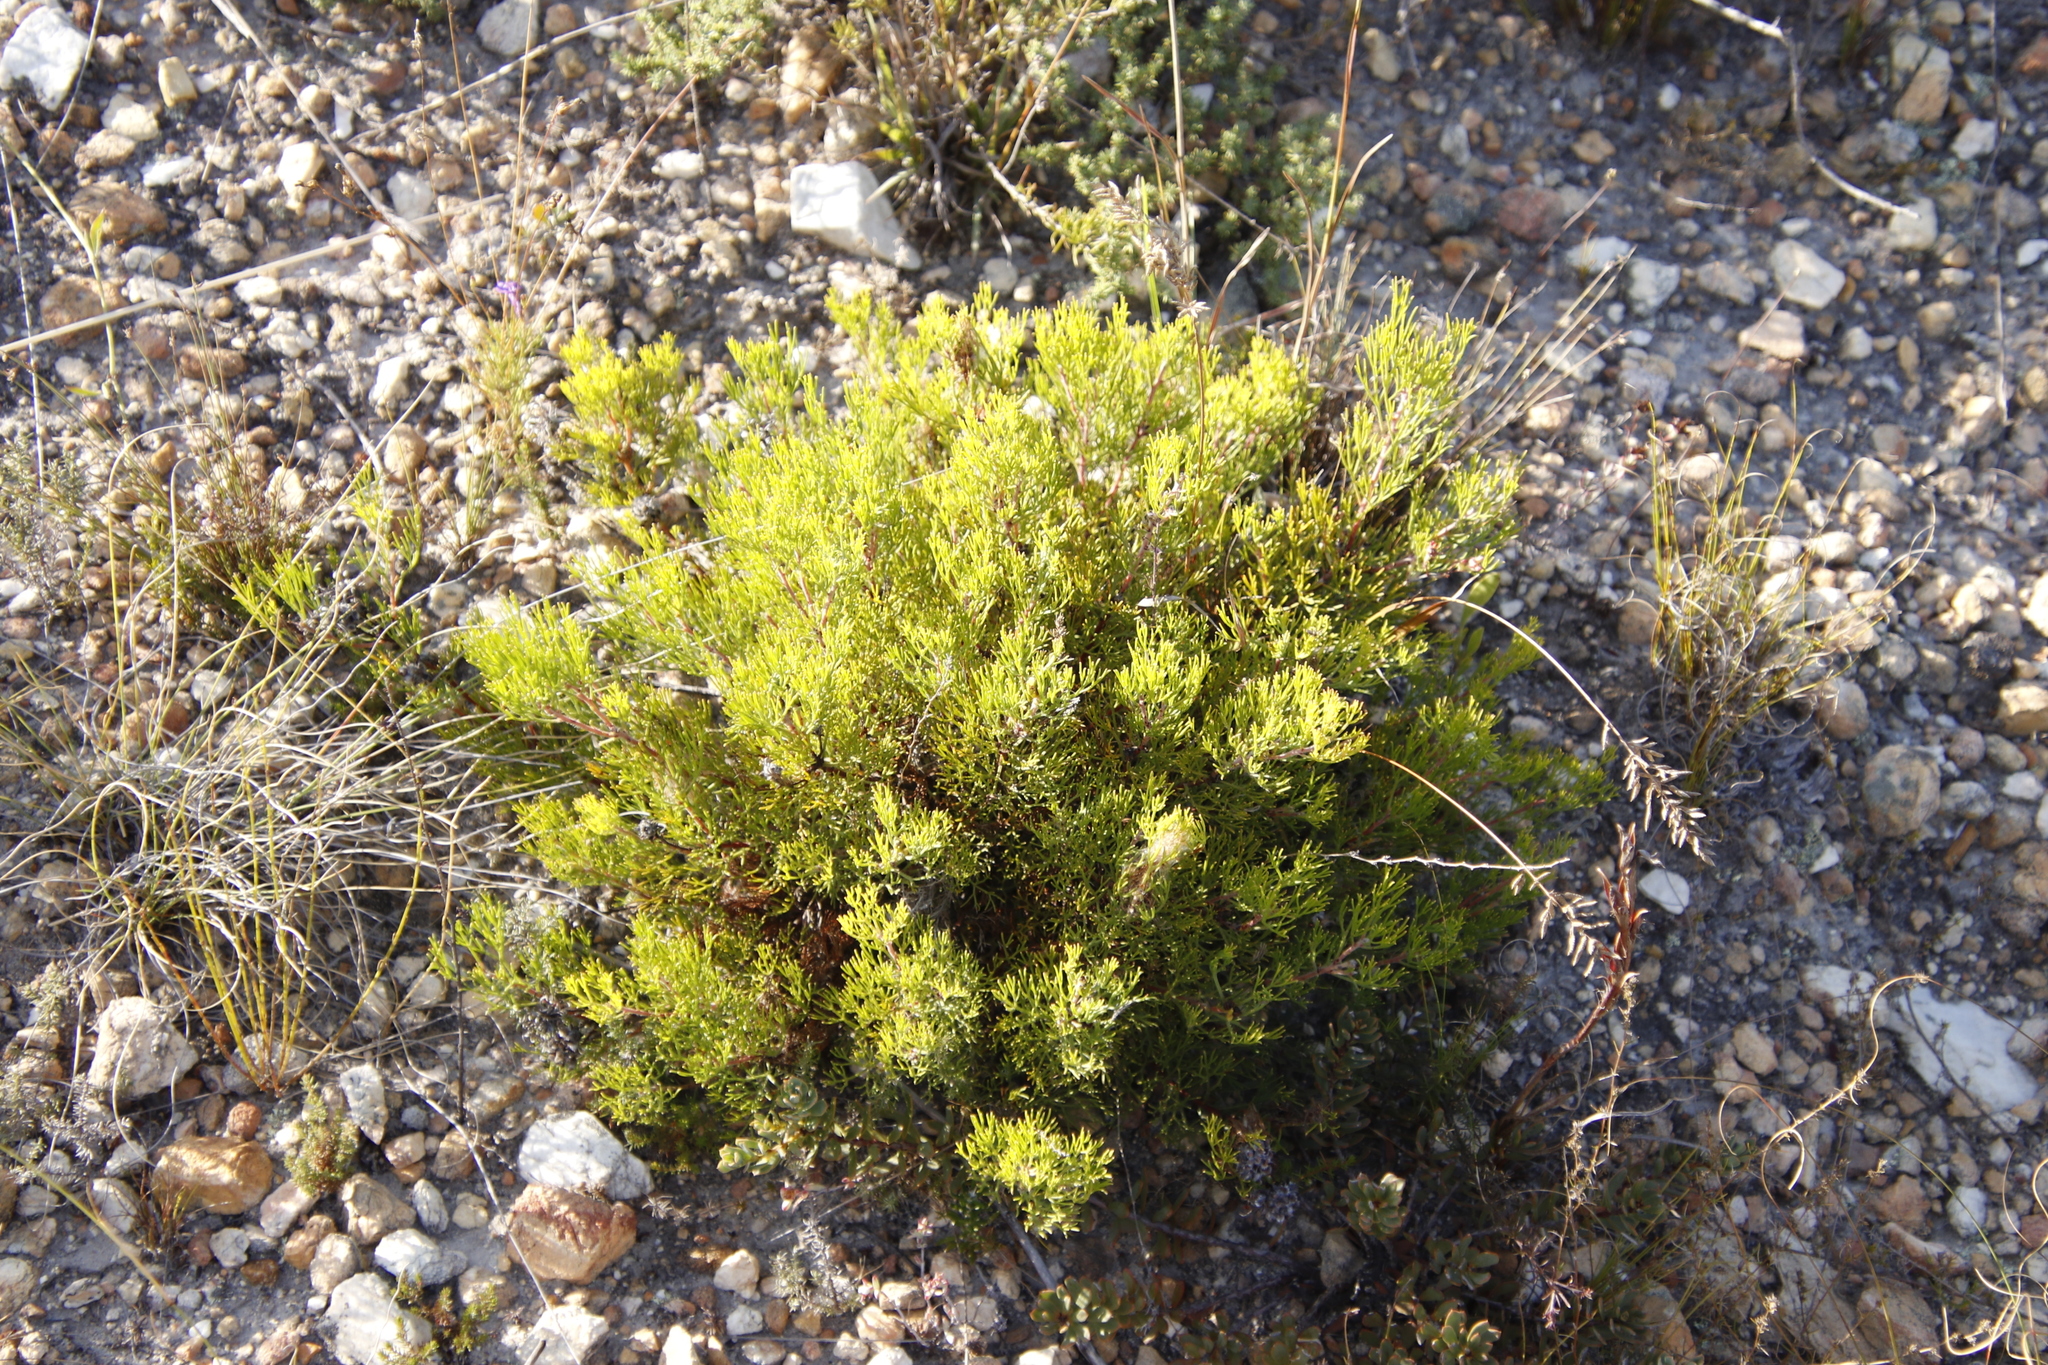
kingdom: Plantae
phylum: Tracheophyta
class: Magnoliopsida
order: Proteales
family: Proteaceae
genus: Serruria
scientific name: Serruria
